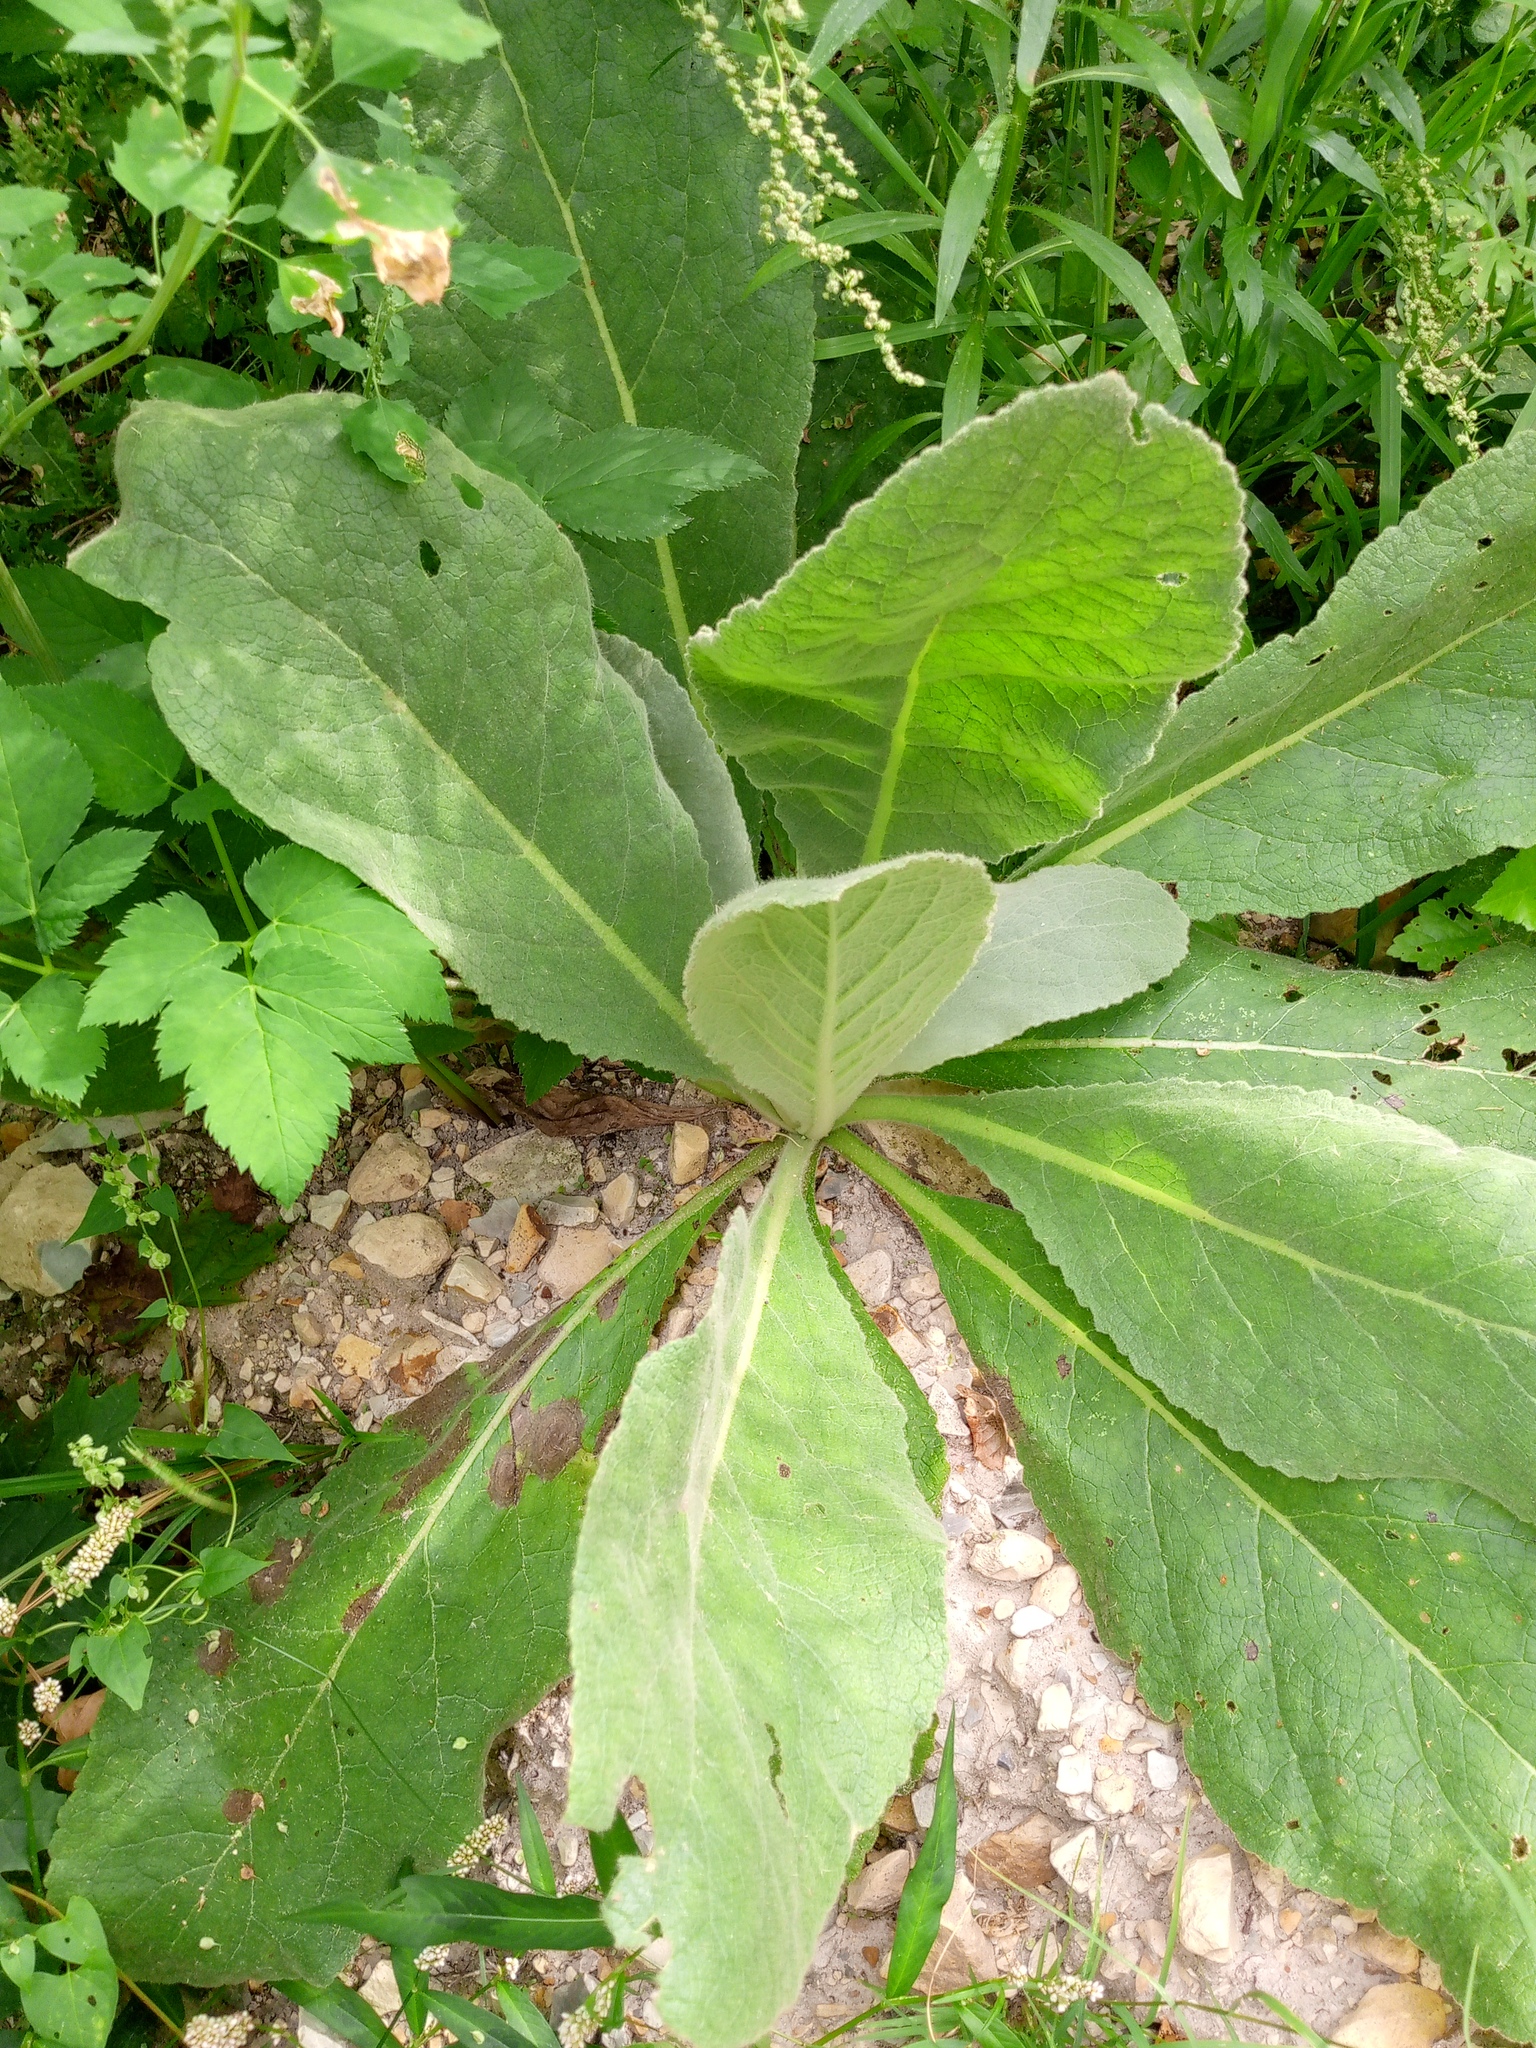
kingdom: Plantae
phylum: Tracheophyta
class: Magnoliopsida
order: Lamiales
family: Scrophulariaceae
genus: Verbascum
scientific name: Verbascum thapsus
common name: Common mullein
